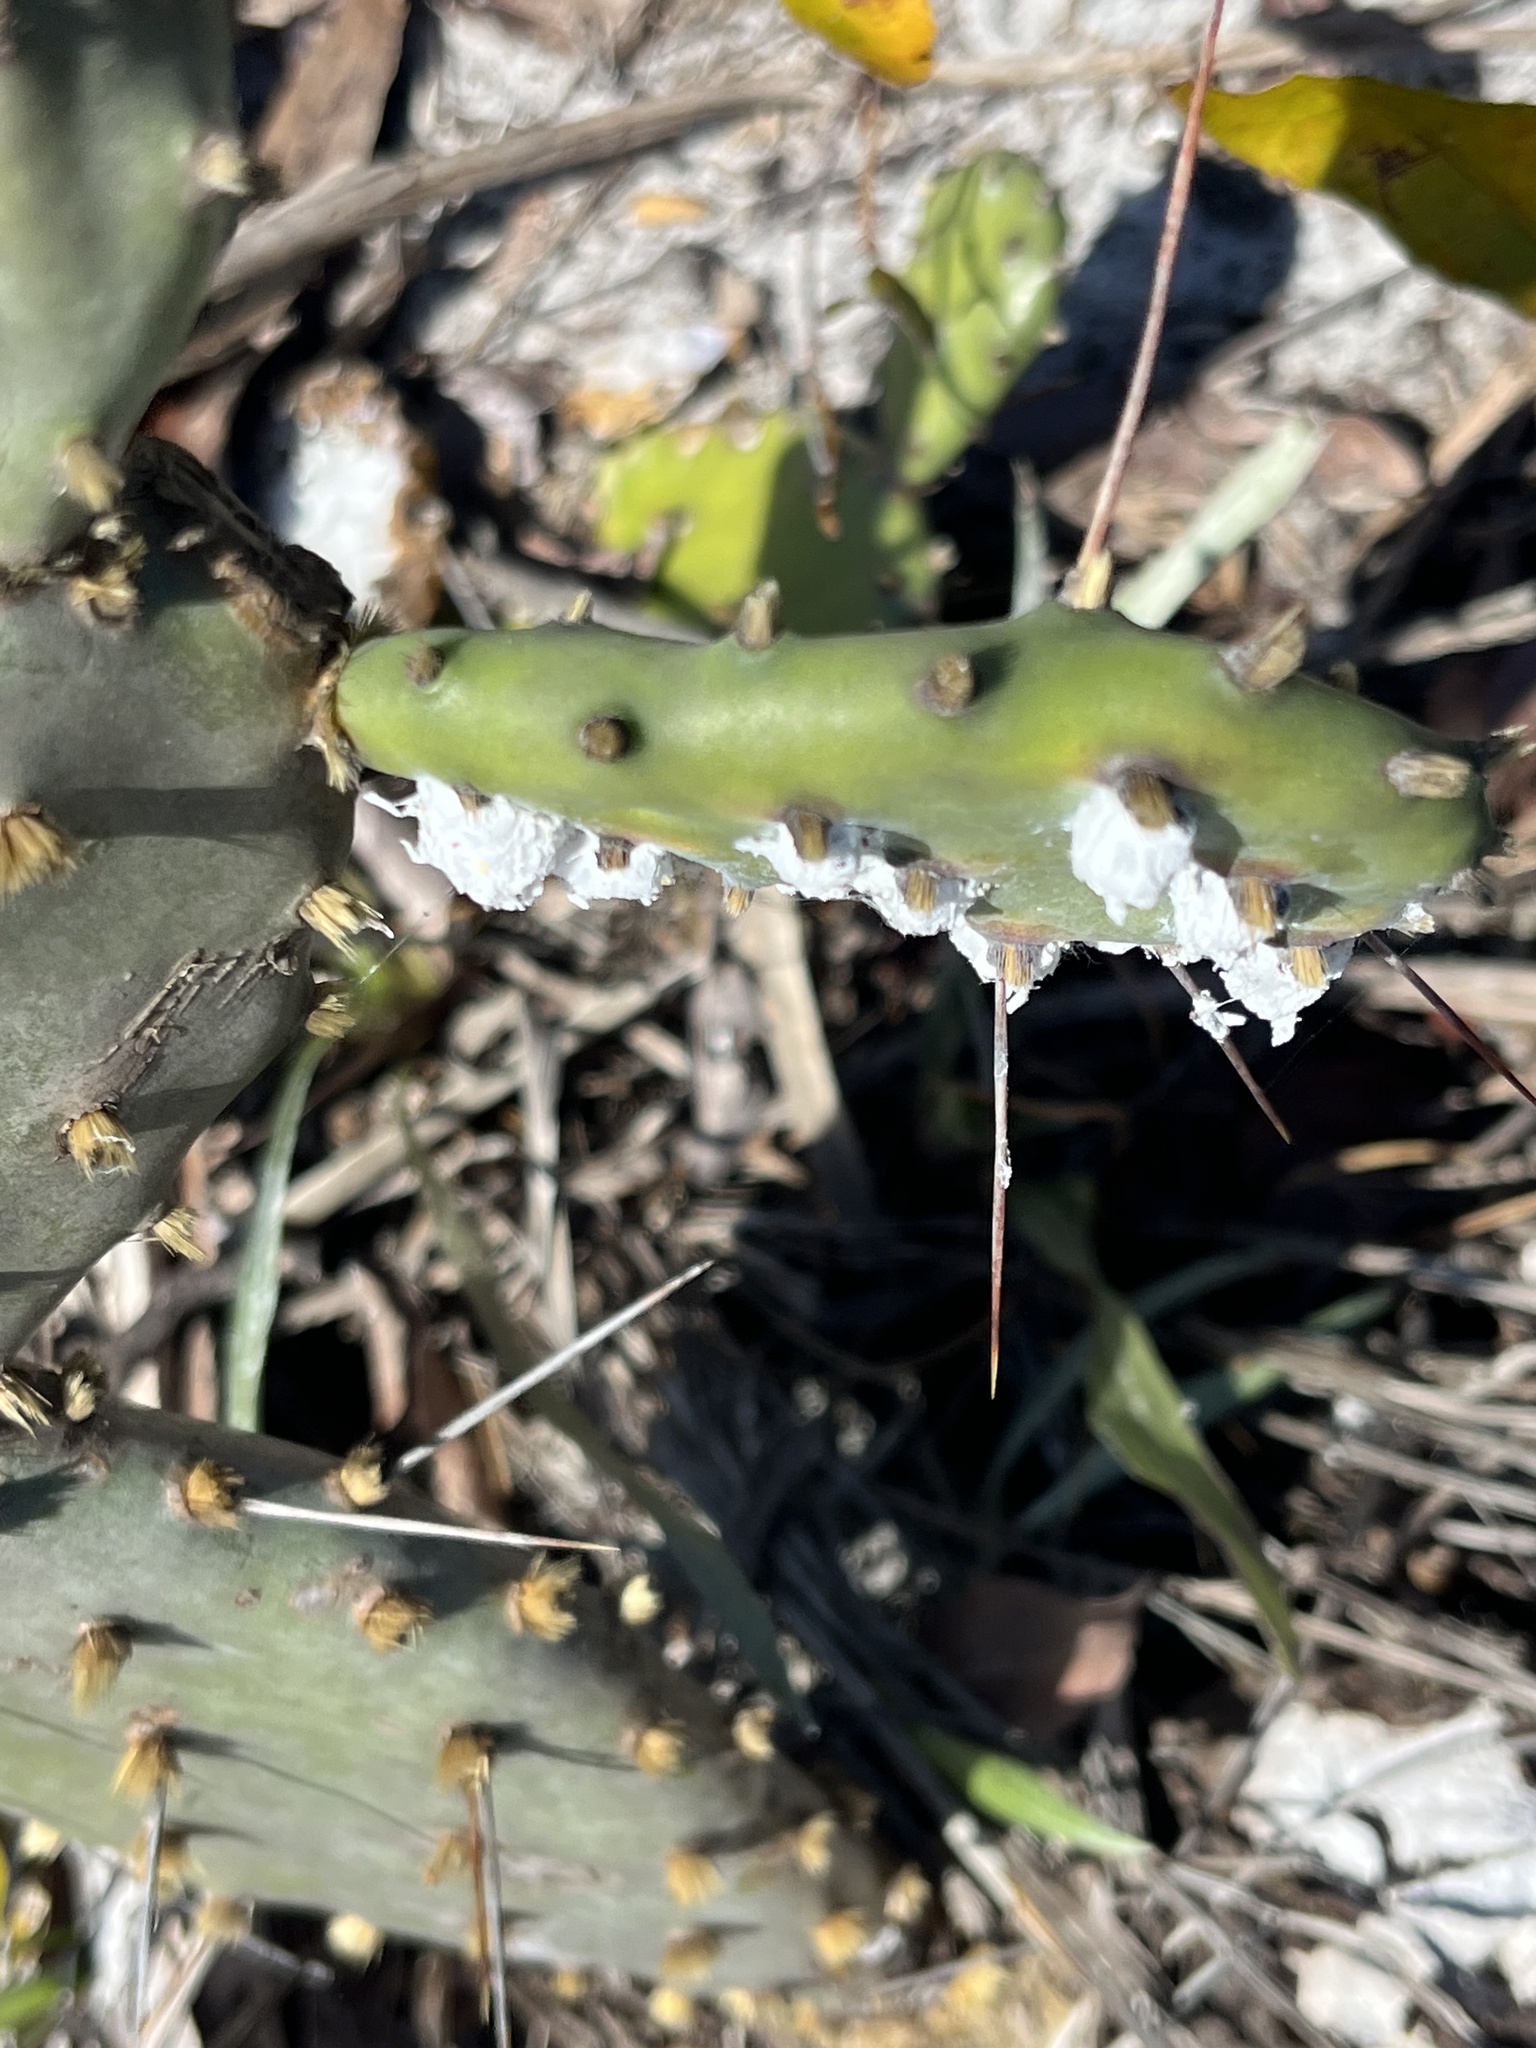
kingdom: Animalia
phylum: Arthropoda
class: Insecta
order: Hemiptera
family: Dactylopiidae
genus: Dactylopius
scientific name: Dactylopius confusus
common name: California cochineal scale
